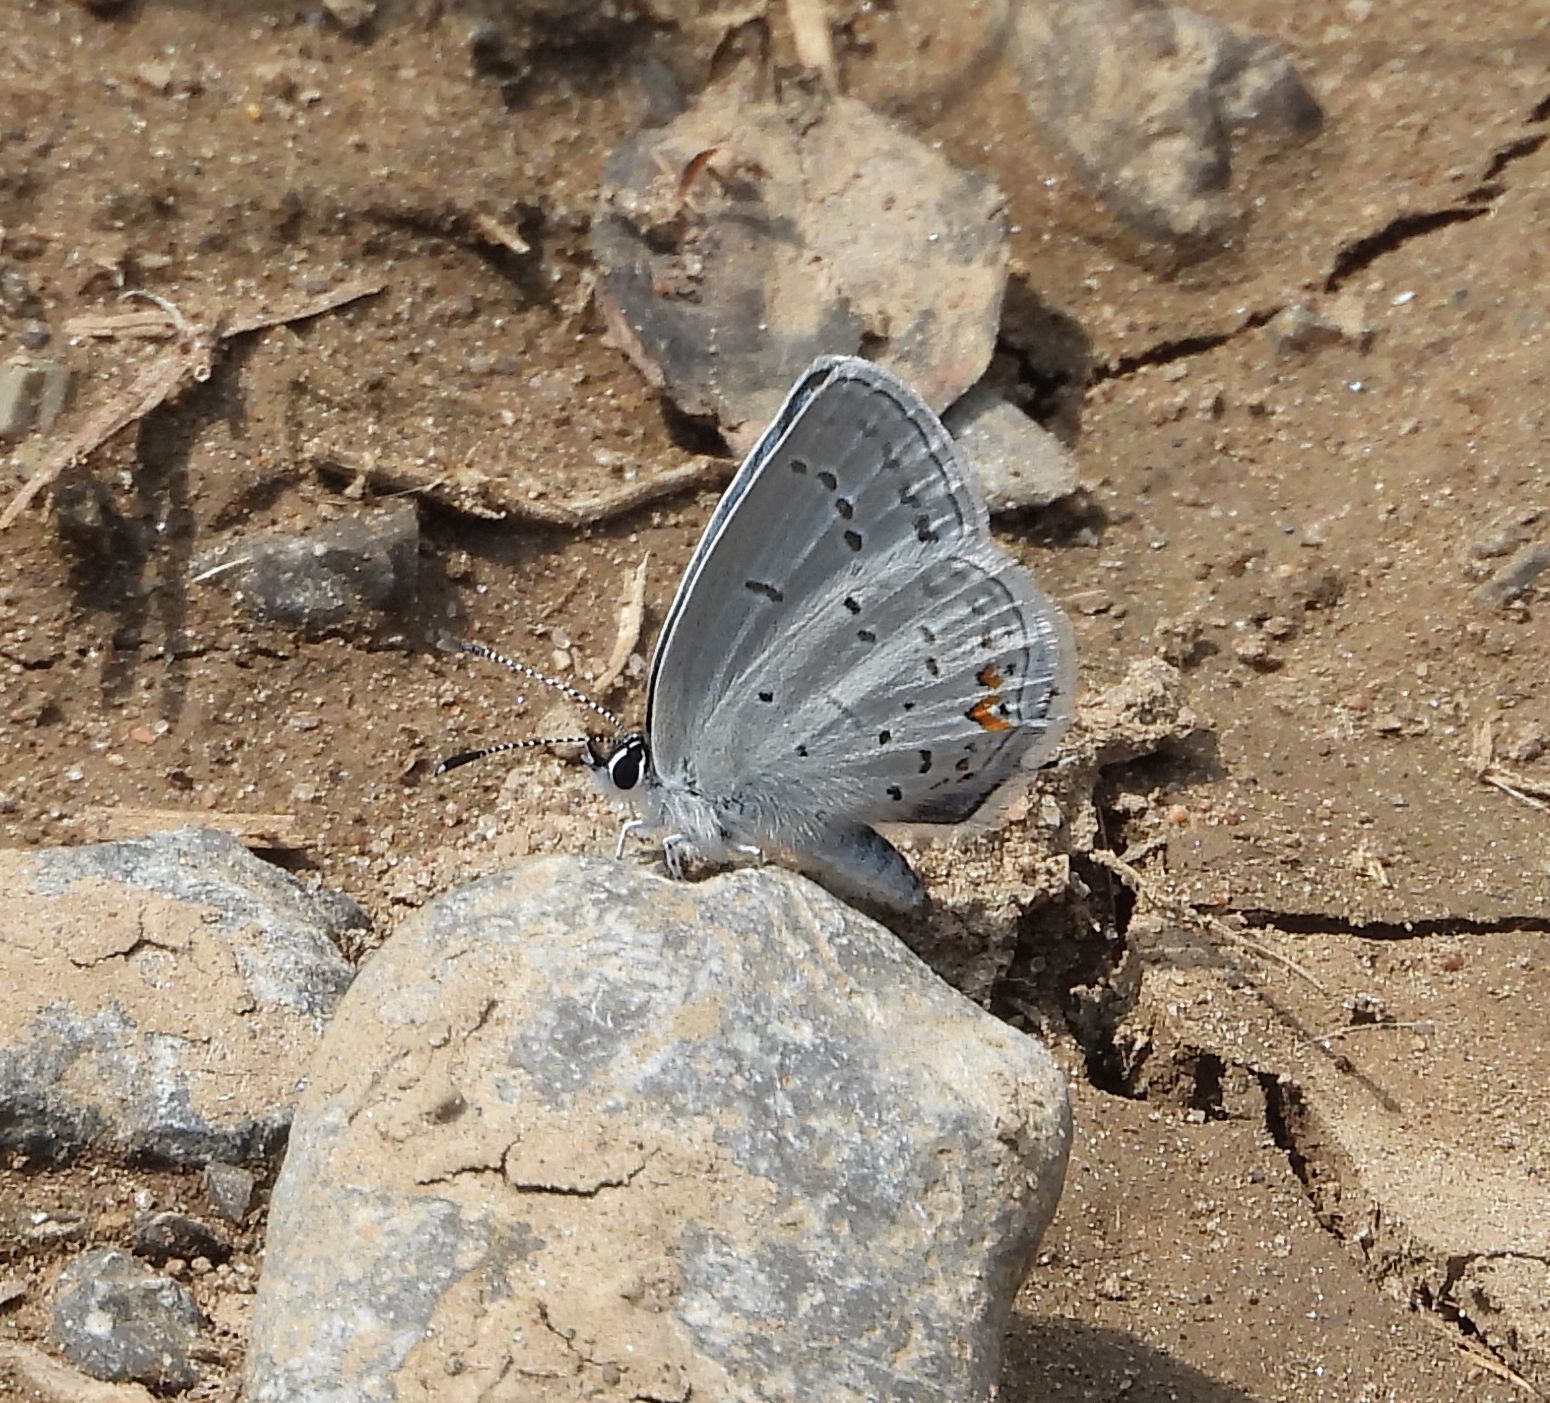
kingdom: Animalia
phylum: Arthropoda
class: Insecta
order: Lepidoptera
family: Lycaenidae
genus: Elkalyce
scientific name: Elkalyce comyntas
